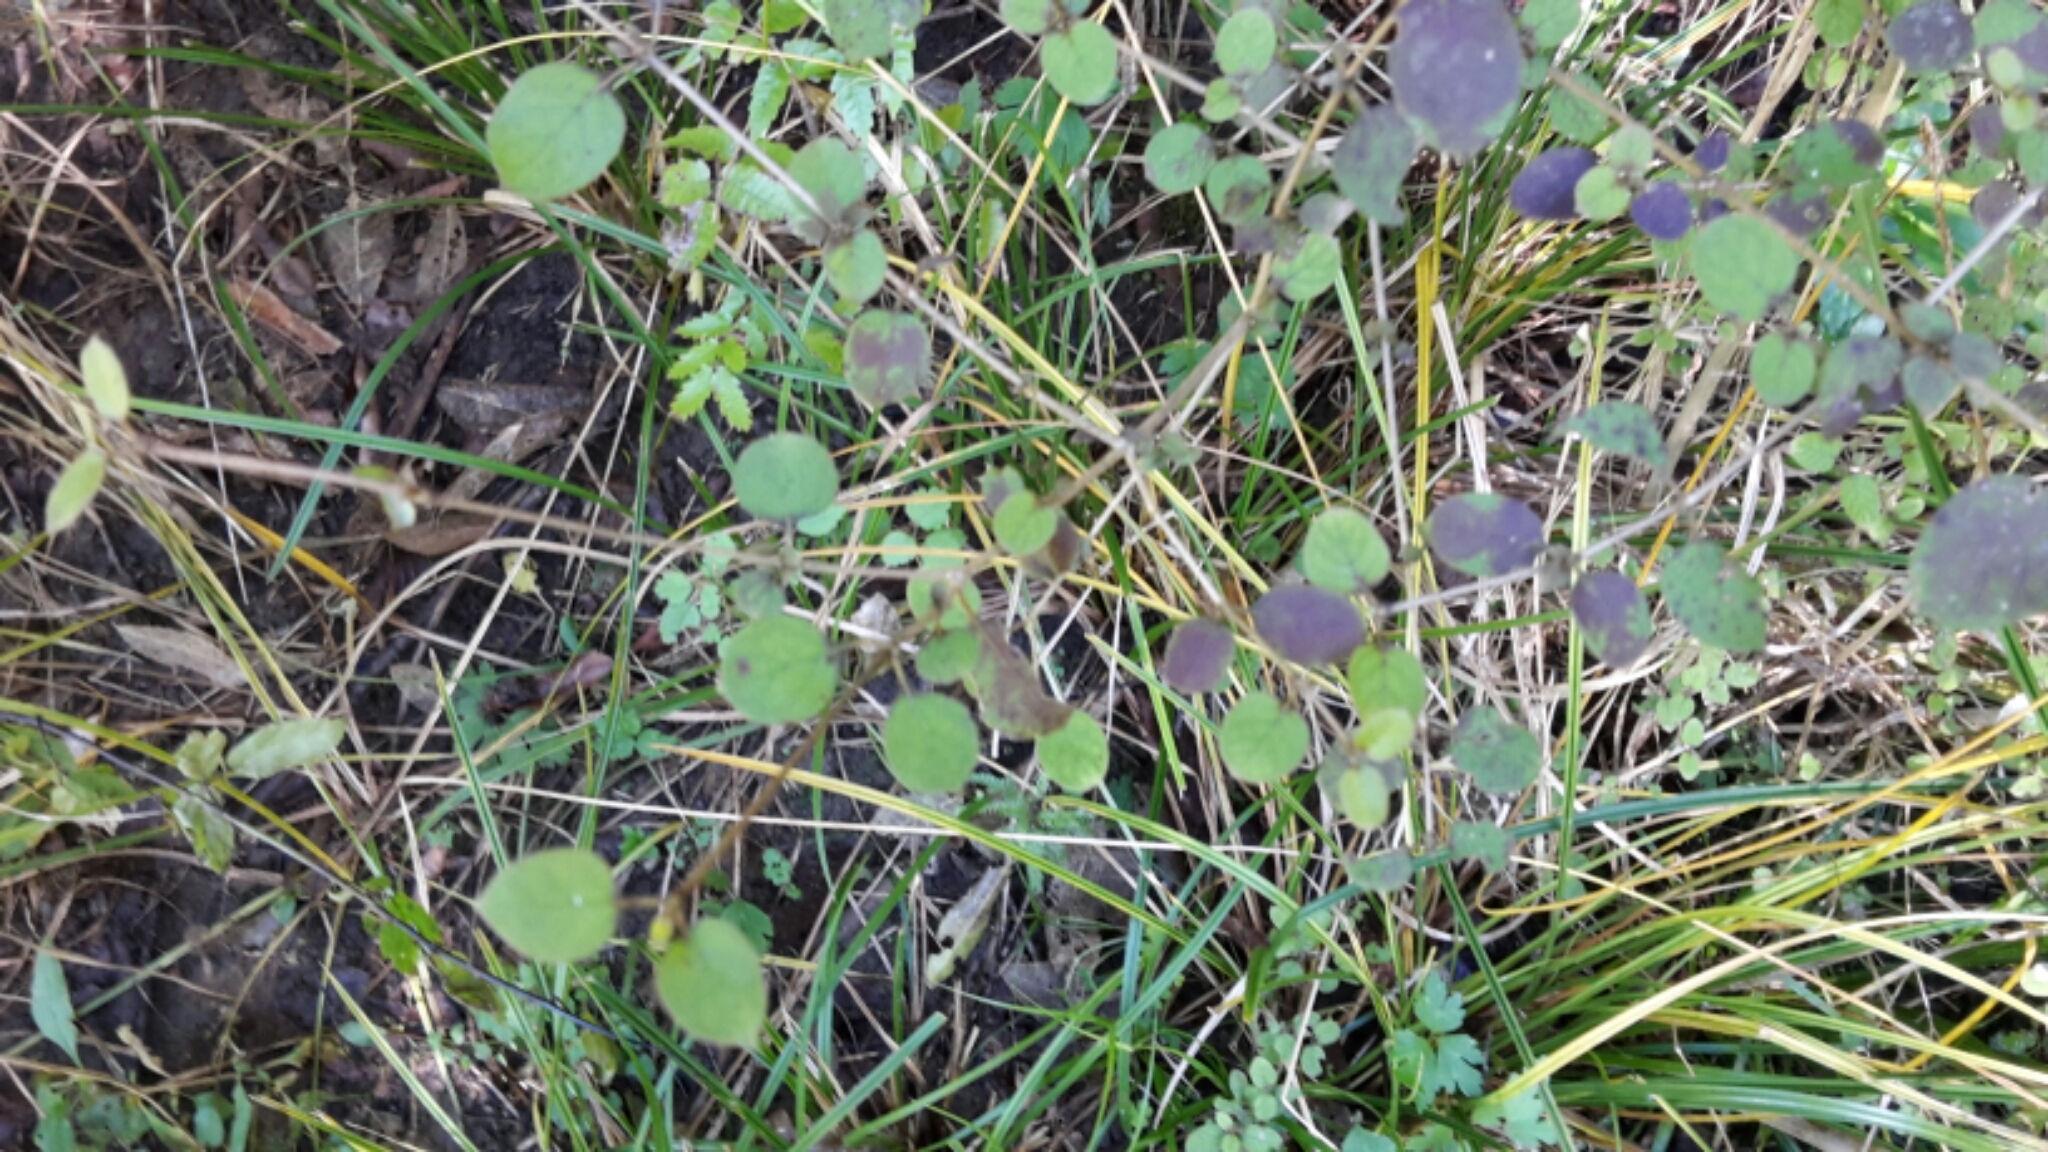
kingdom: Plantae
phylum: Tracheophyta
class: Magnoliopsida
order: Gentianales
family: Rubiaceae
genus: Coprosma
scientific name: Coprosma rotundifolia
